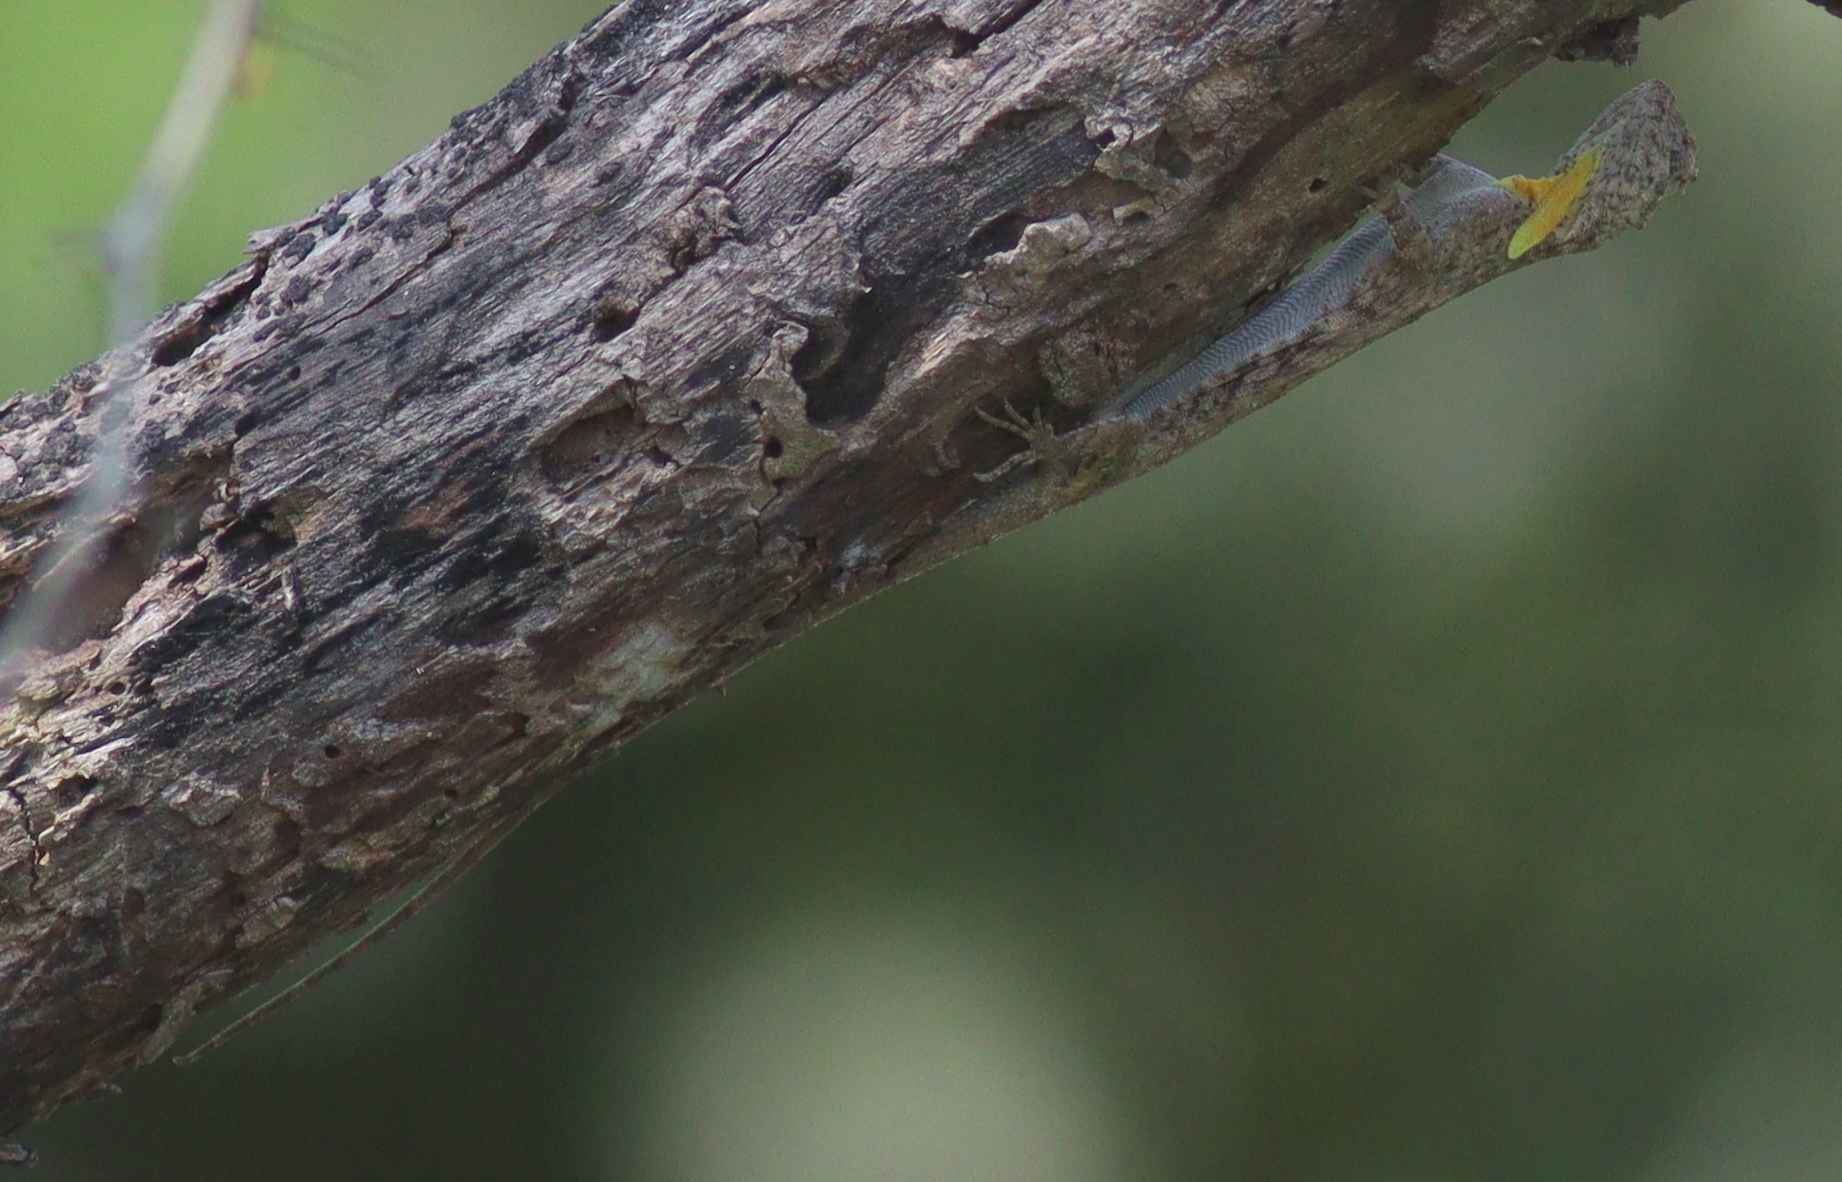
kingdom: Animalia
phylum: Chordata
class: Squamata
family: Agamidae
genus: Draco
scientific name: Draco volans
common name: Common flying dragon
